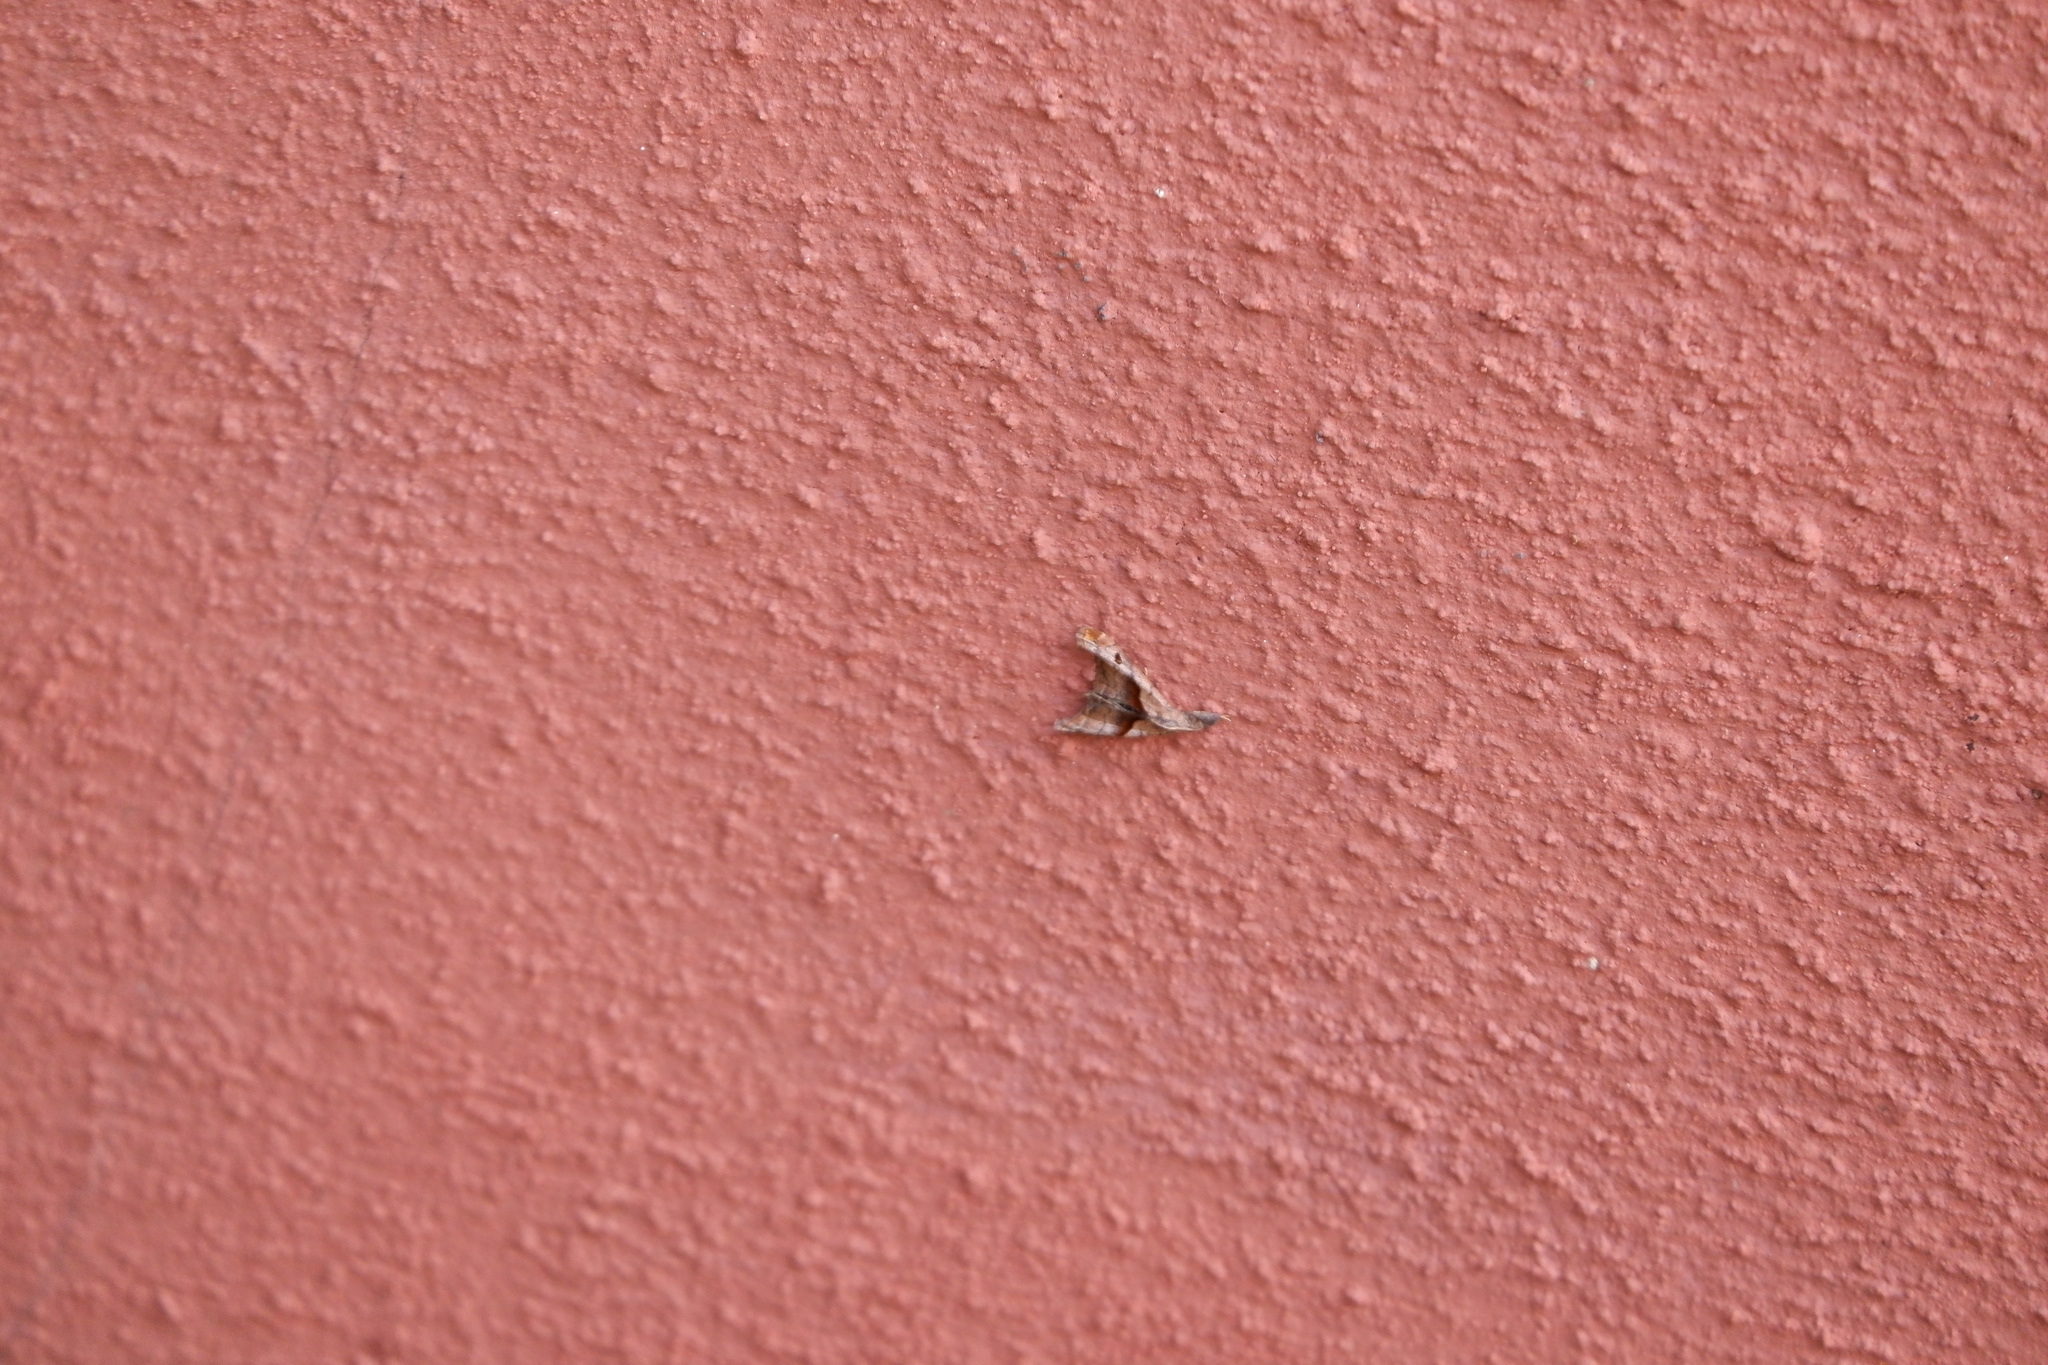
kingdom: Animalia
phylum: Arthropoda
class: Insecta
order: Lepidoptera
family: Erebidae
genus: Palthis
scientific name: Palthis angulalis
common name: Dark-spotted palthis moth
